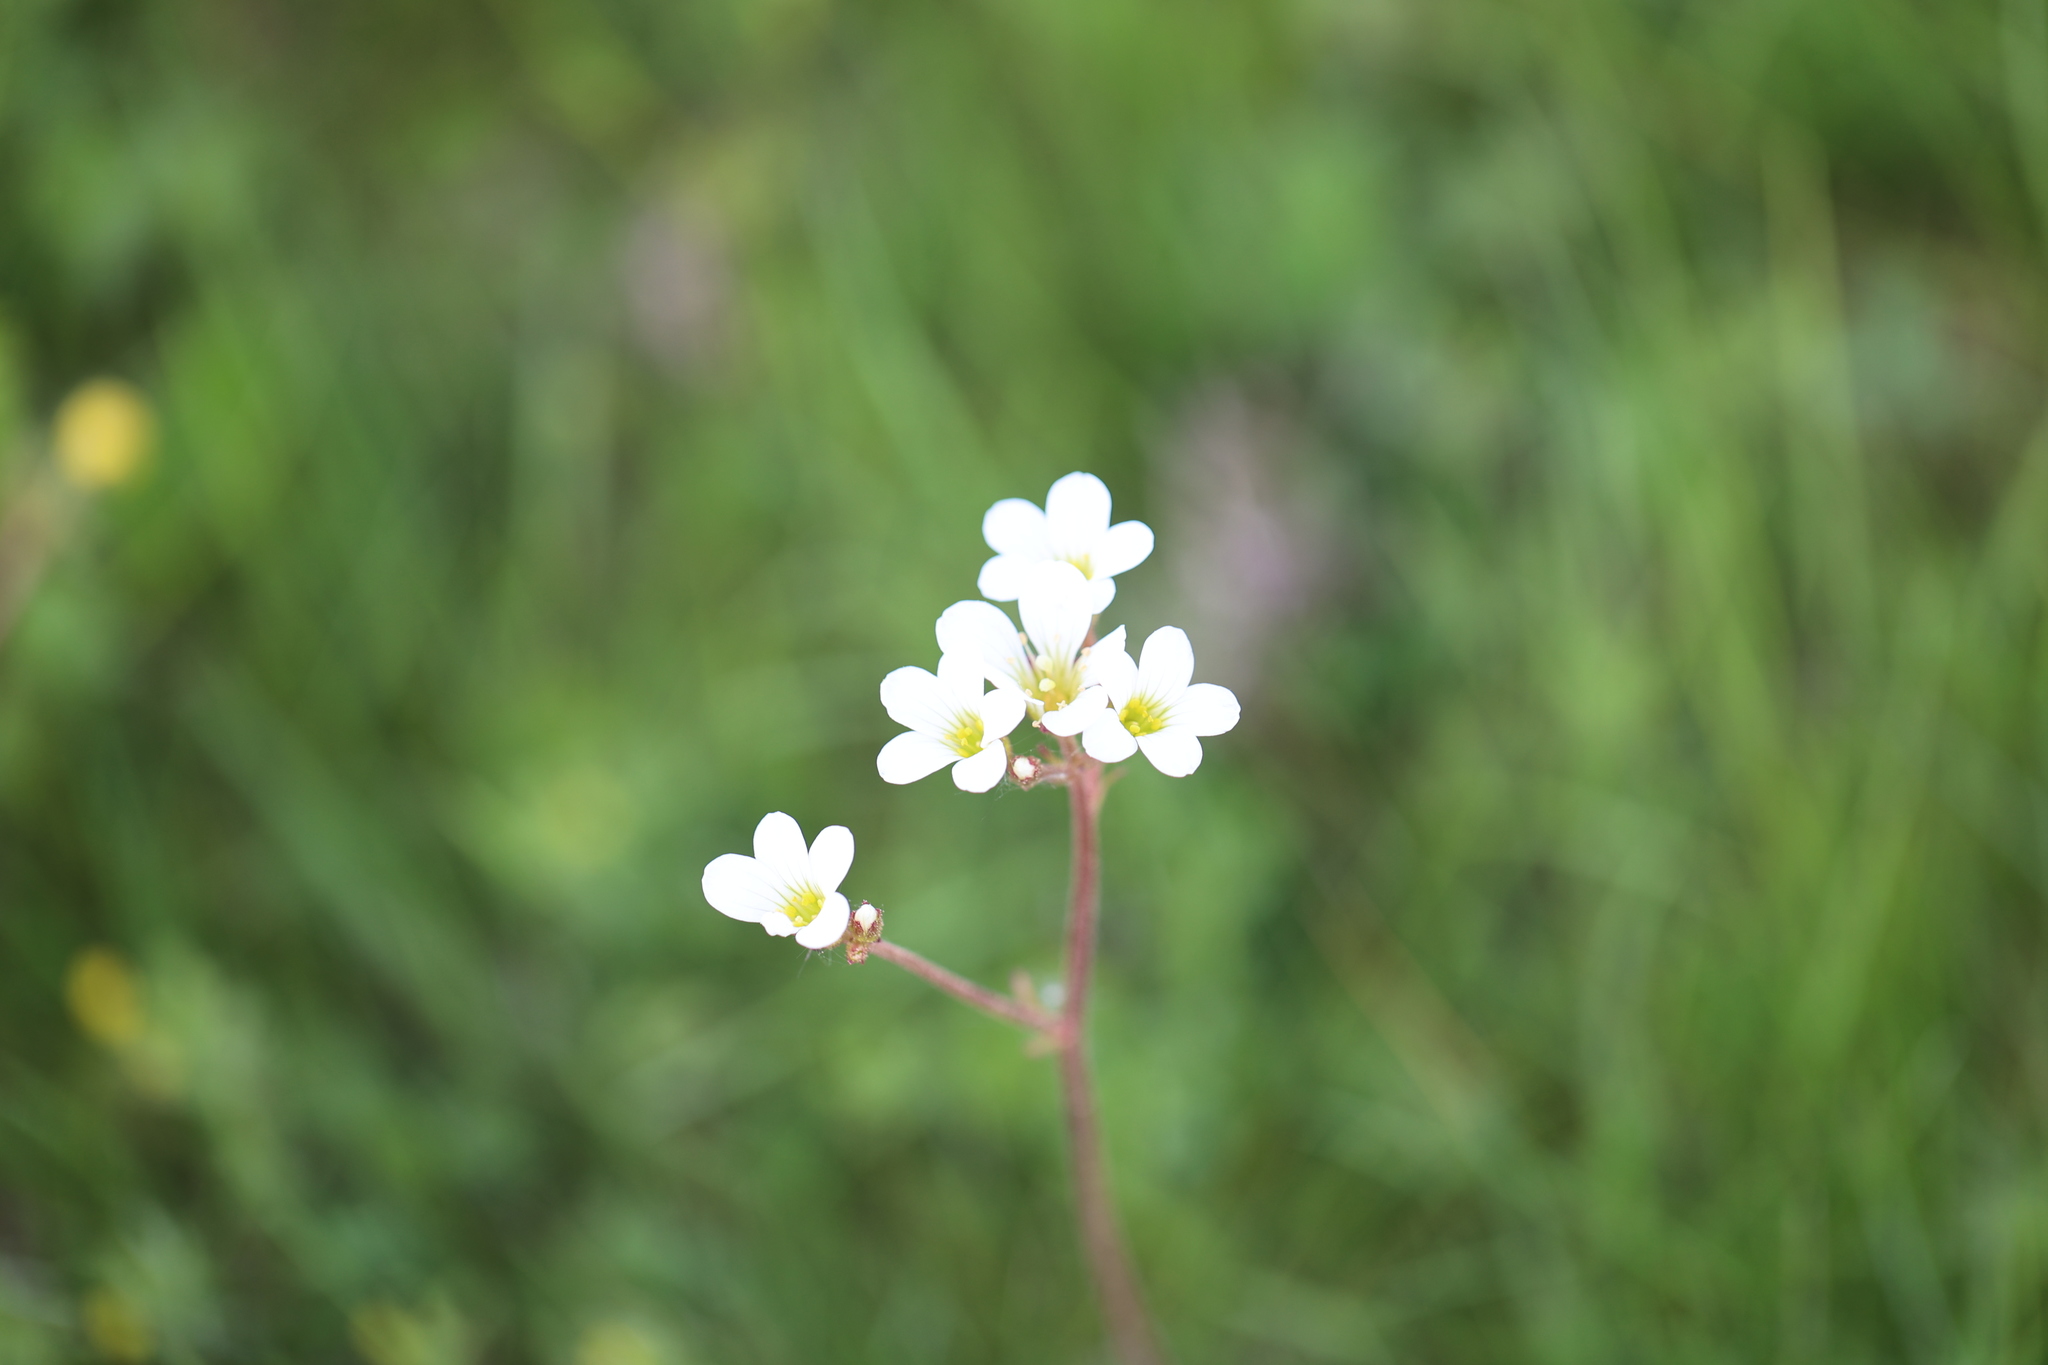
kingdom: Plantae
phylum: Tracheophyta
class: Magnoliopsida
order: Saxifragales
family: Saxifragaceae
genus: Saxifraga
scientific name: Saxifraga granulata
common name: Meadow saxifrage
